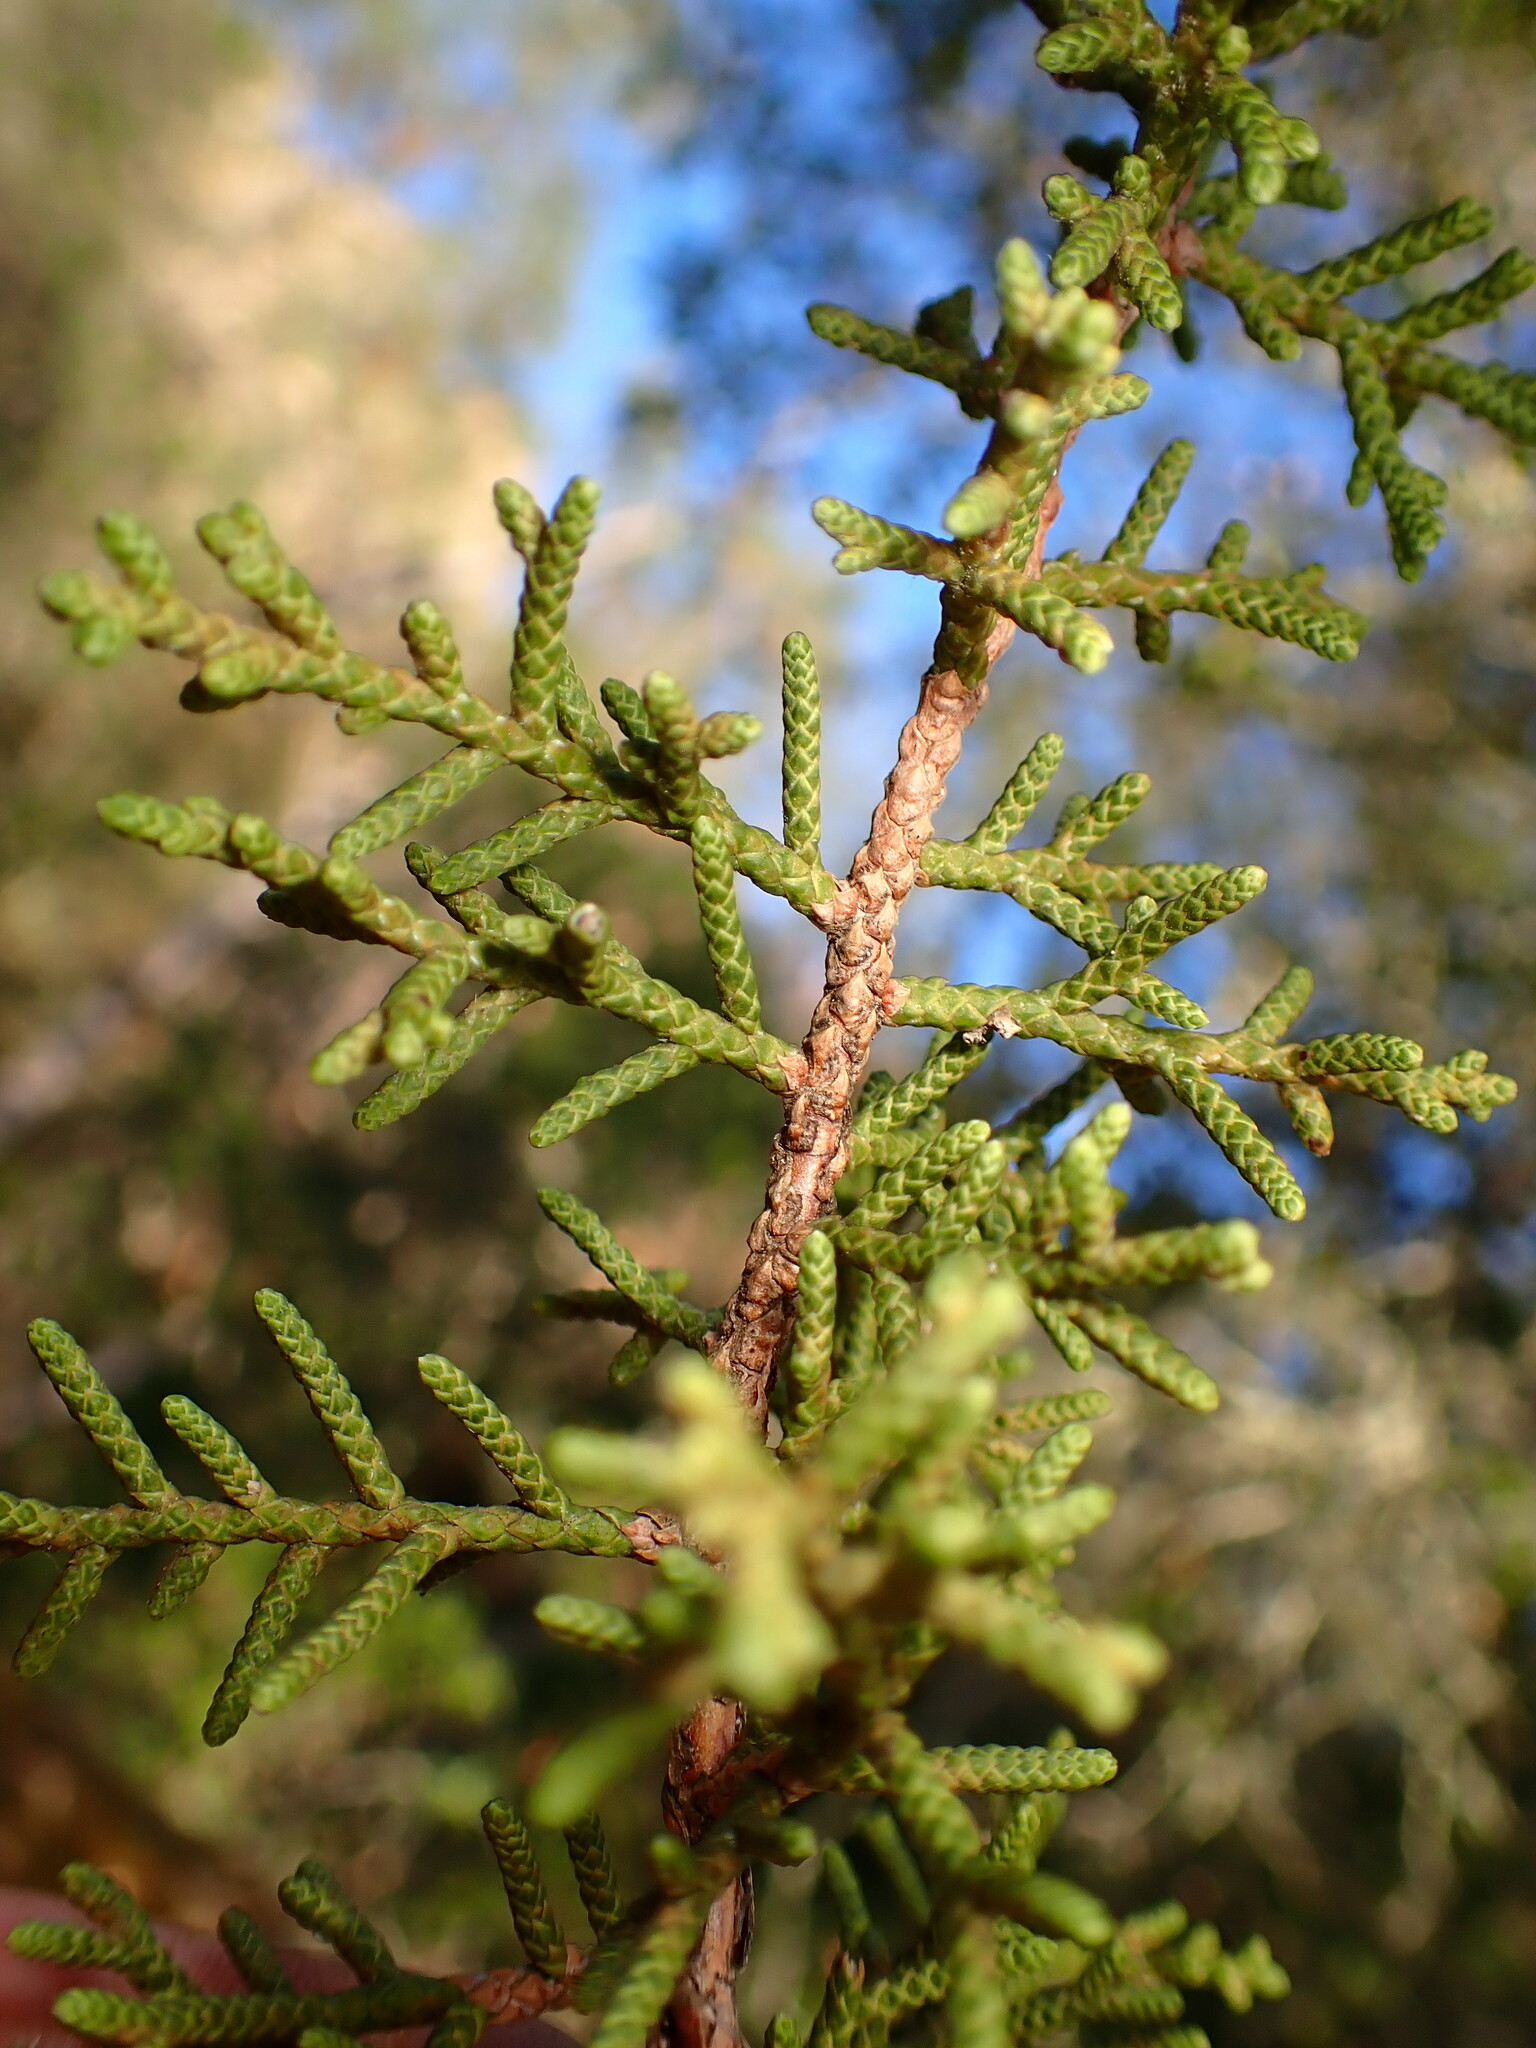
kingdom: Plantae
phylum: Tracheophyta
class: Pinopsida
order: Pinales
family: Cupressaceae
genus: Juniperus
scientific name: Juniperus californica
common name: California juniper
